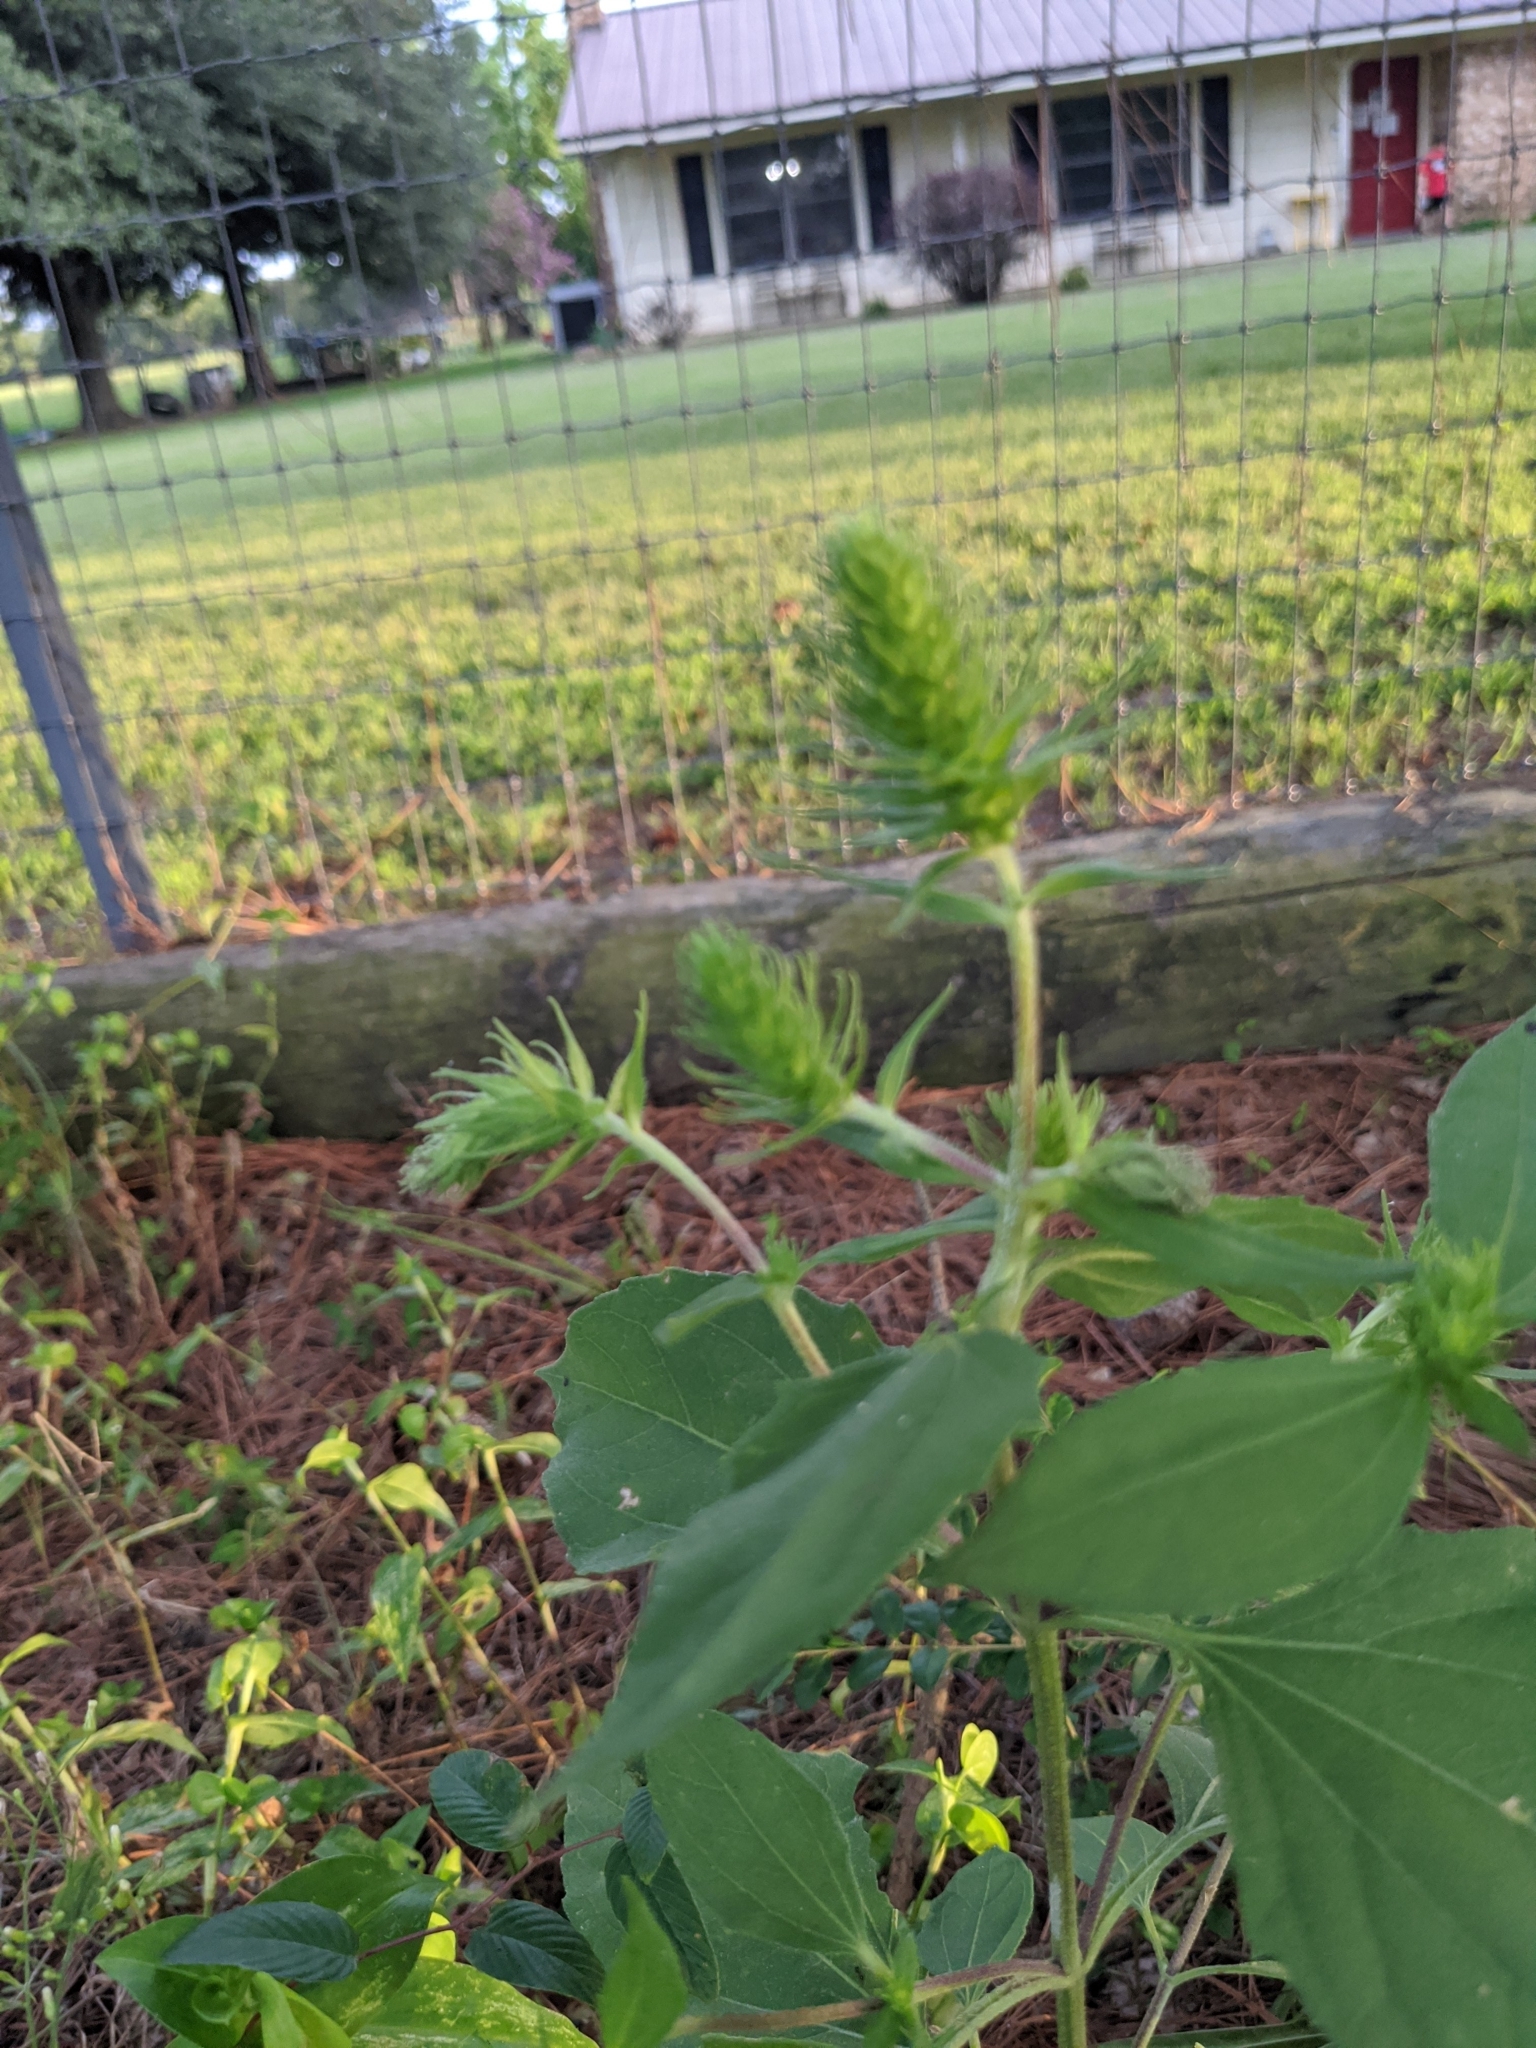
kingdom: Plantae
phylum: Tracheophyta
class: Magnoliopsida
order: Asterales
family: Asteraceae
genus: Iva
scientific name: Iva annua
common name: Marsh-elder
